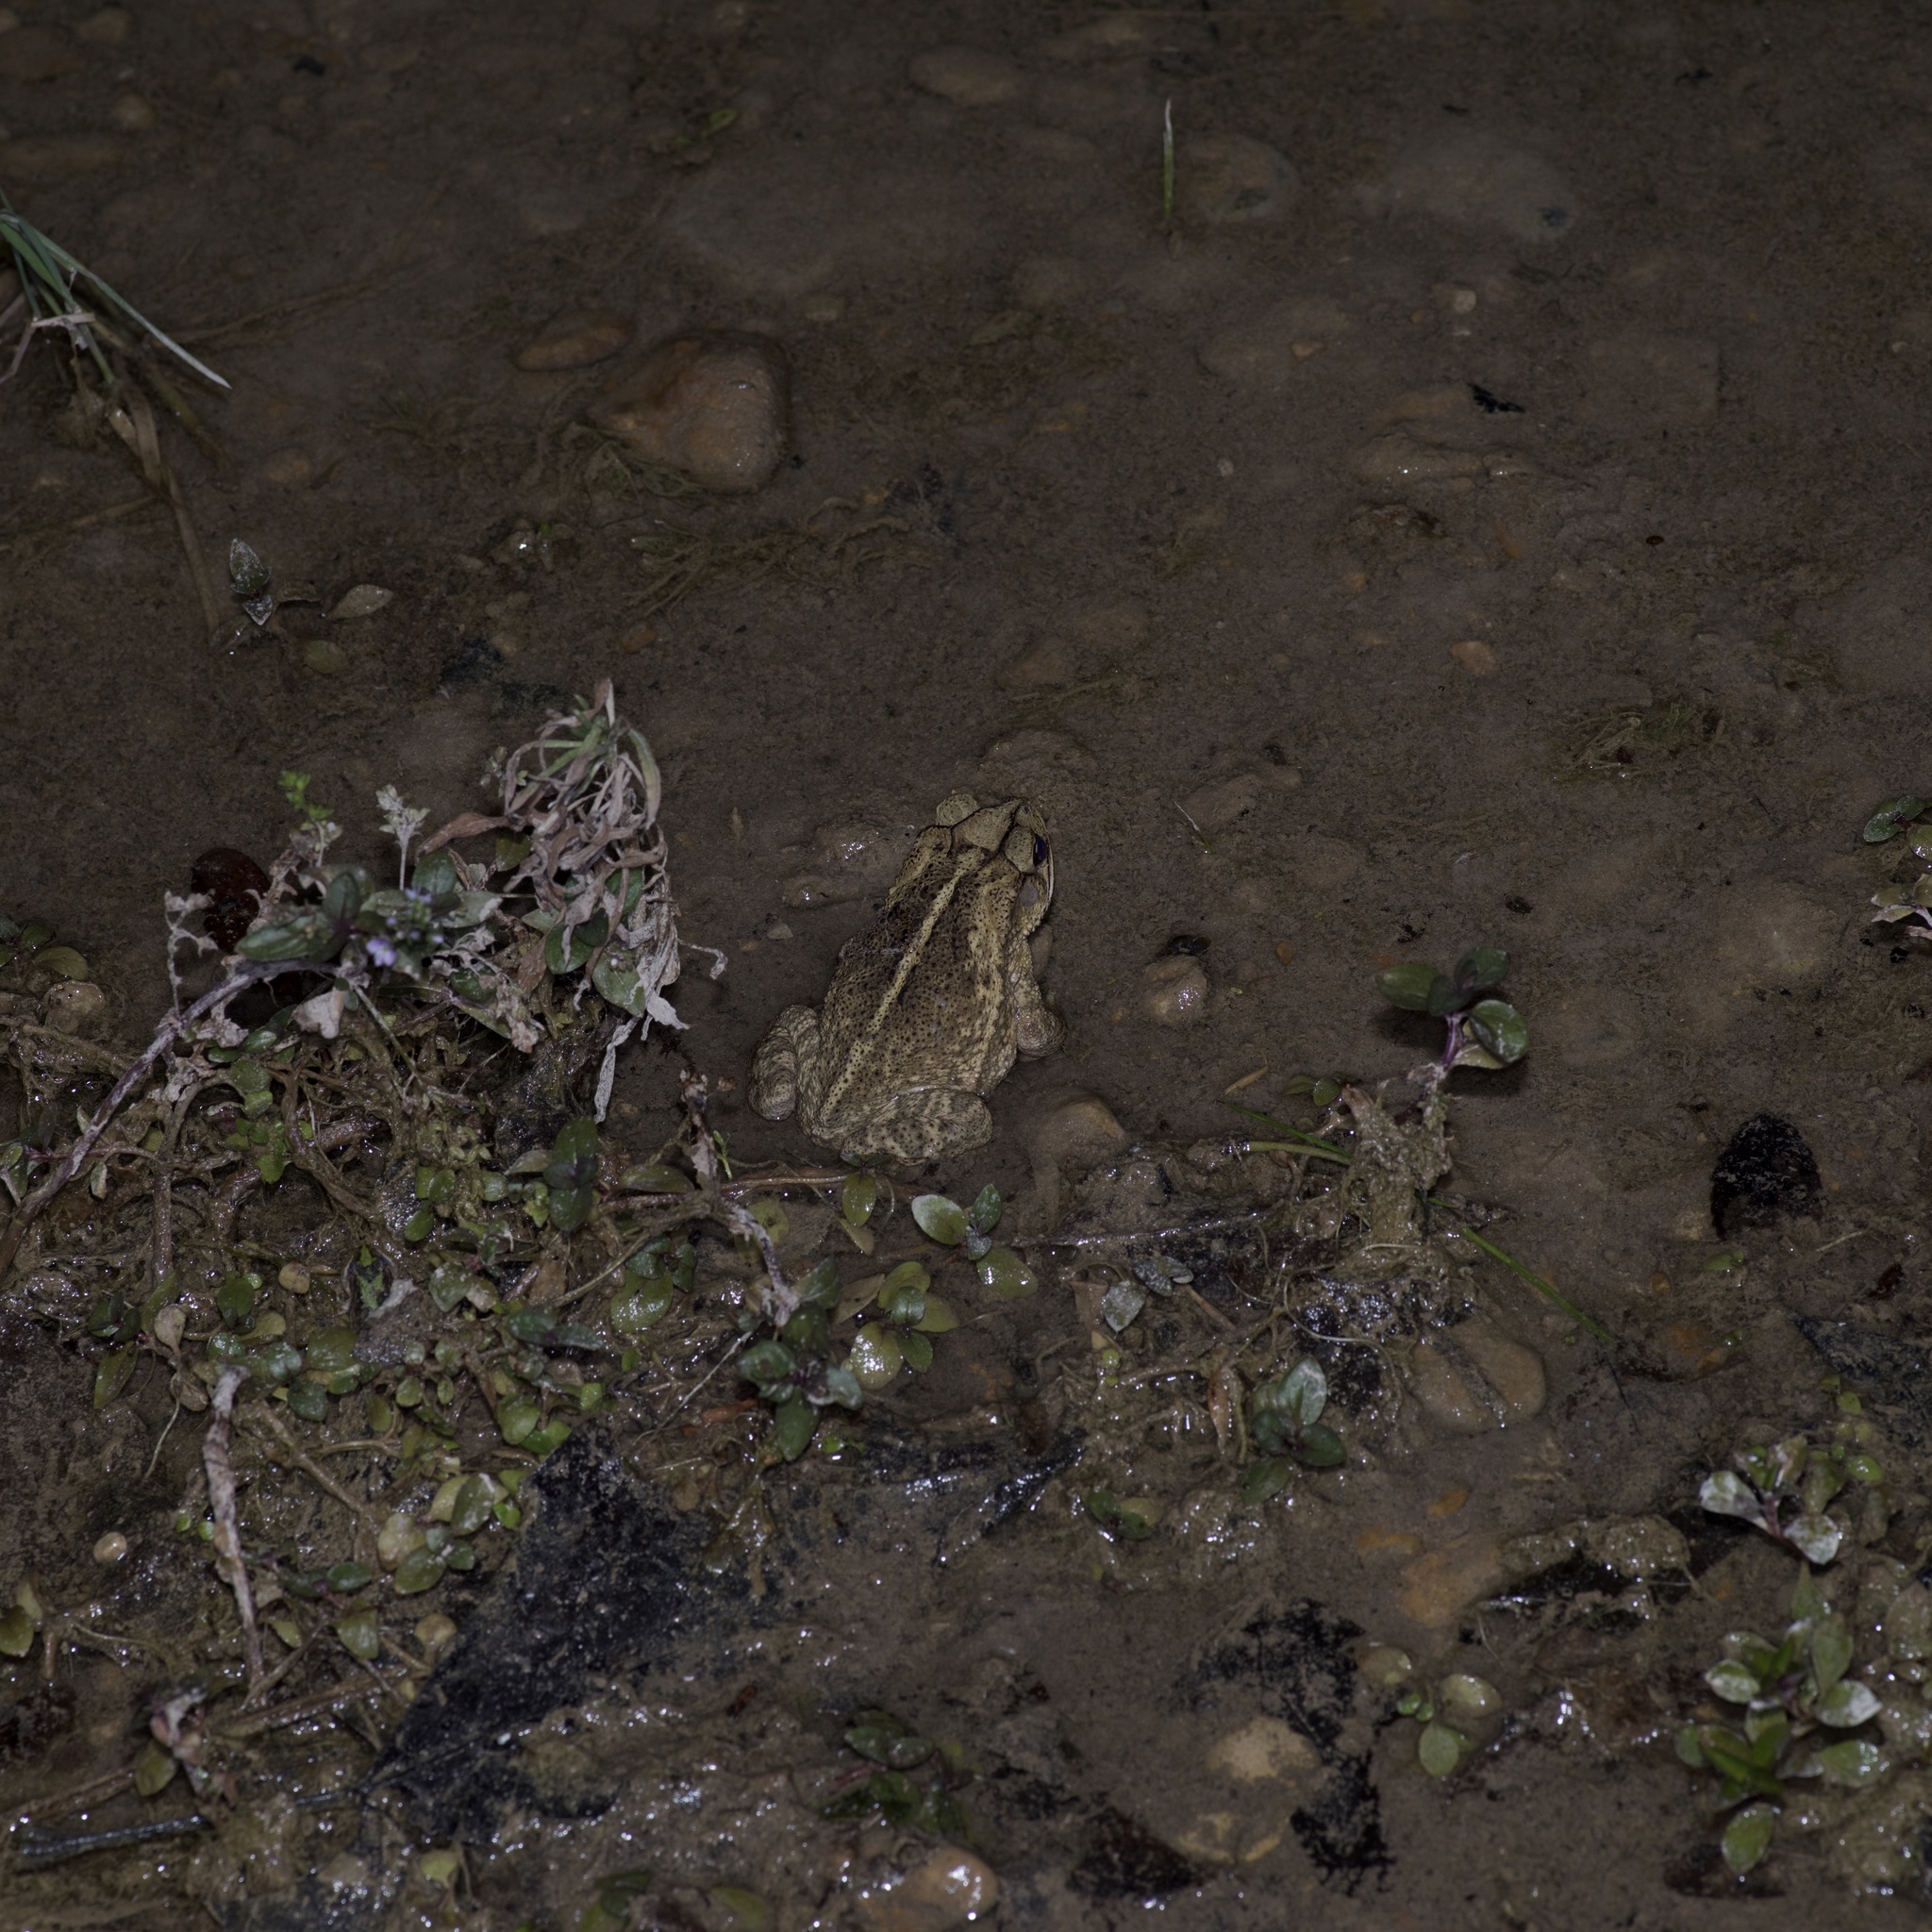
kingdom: Animalia
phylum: Chordata
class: Amphibia
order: Anura
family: Bufonidae
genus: Incilius
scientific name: Incilius nebulifer
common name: Gulf coast toad
